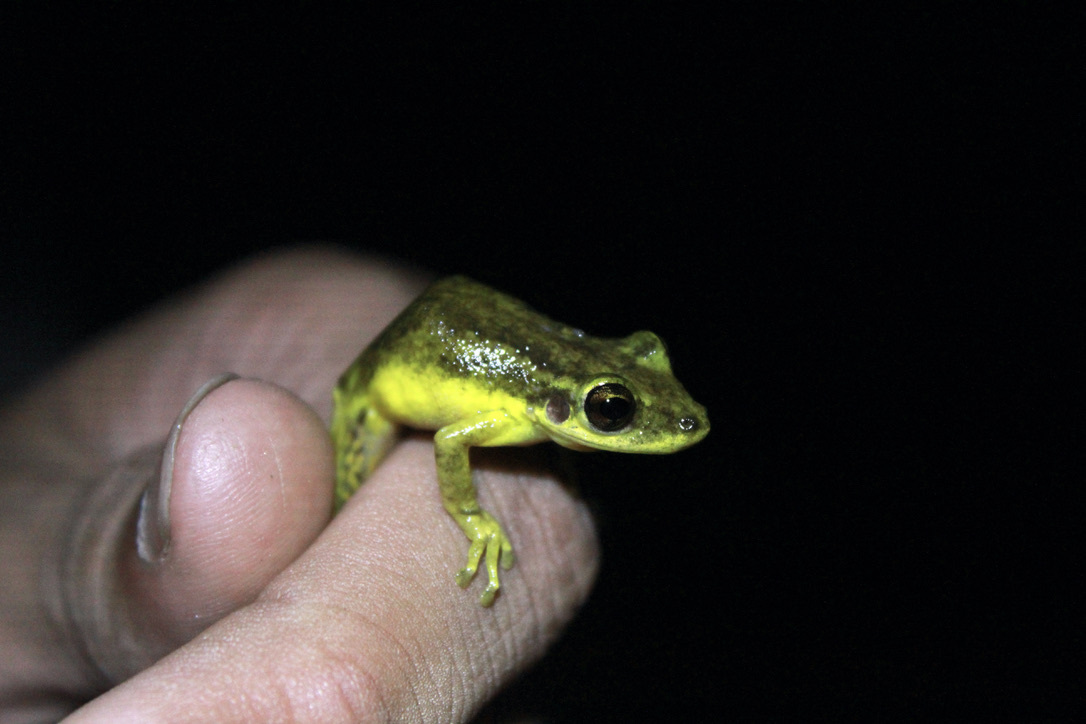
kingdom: Animalia
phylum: Chordata
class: Amphibia
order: Anura
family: Hylidae
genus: Scinax
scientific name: Scinax ruber
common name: Red snouted treefrog
